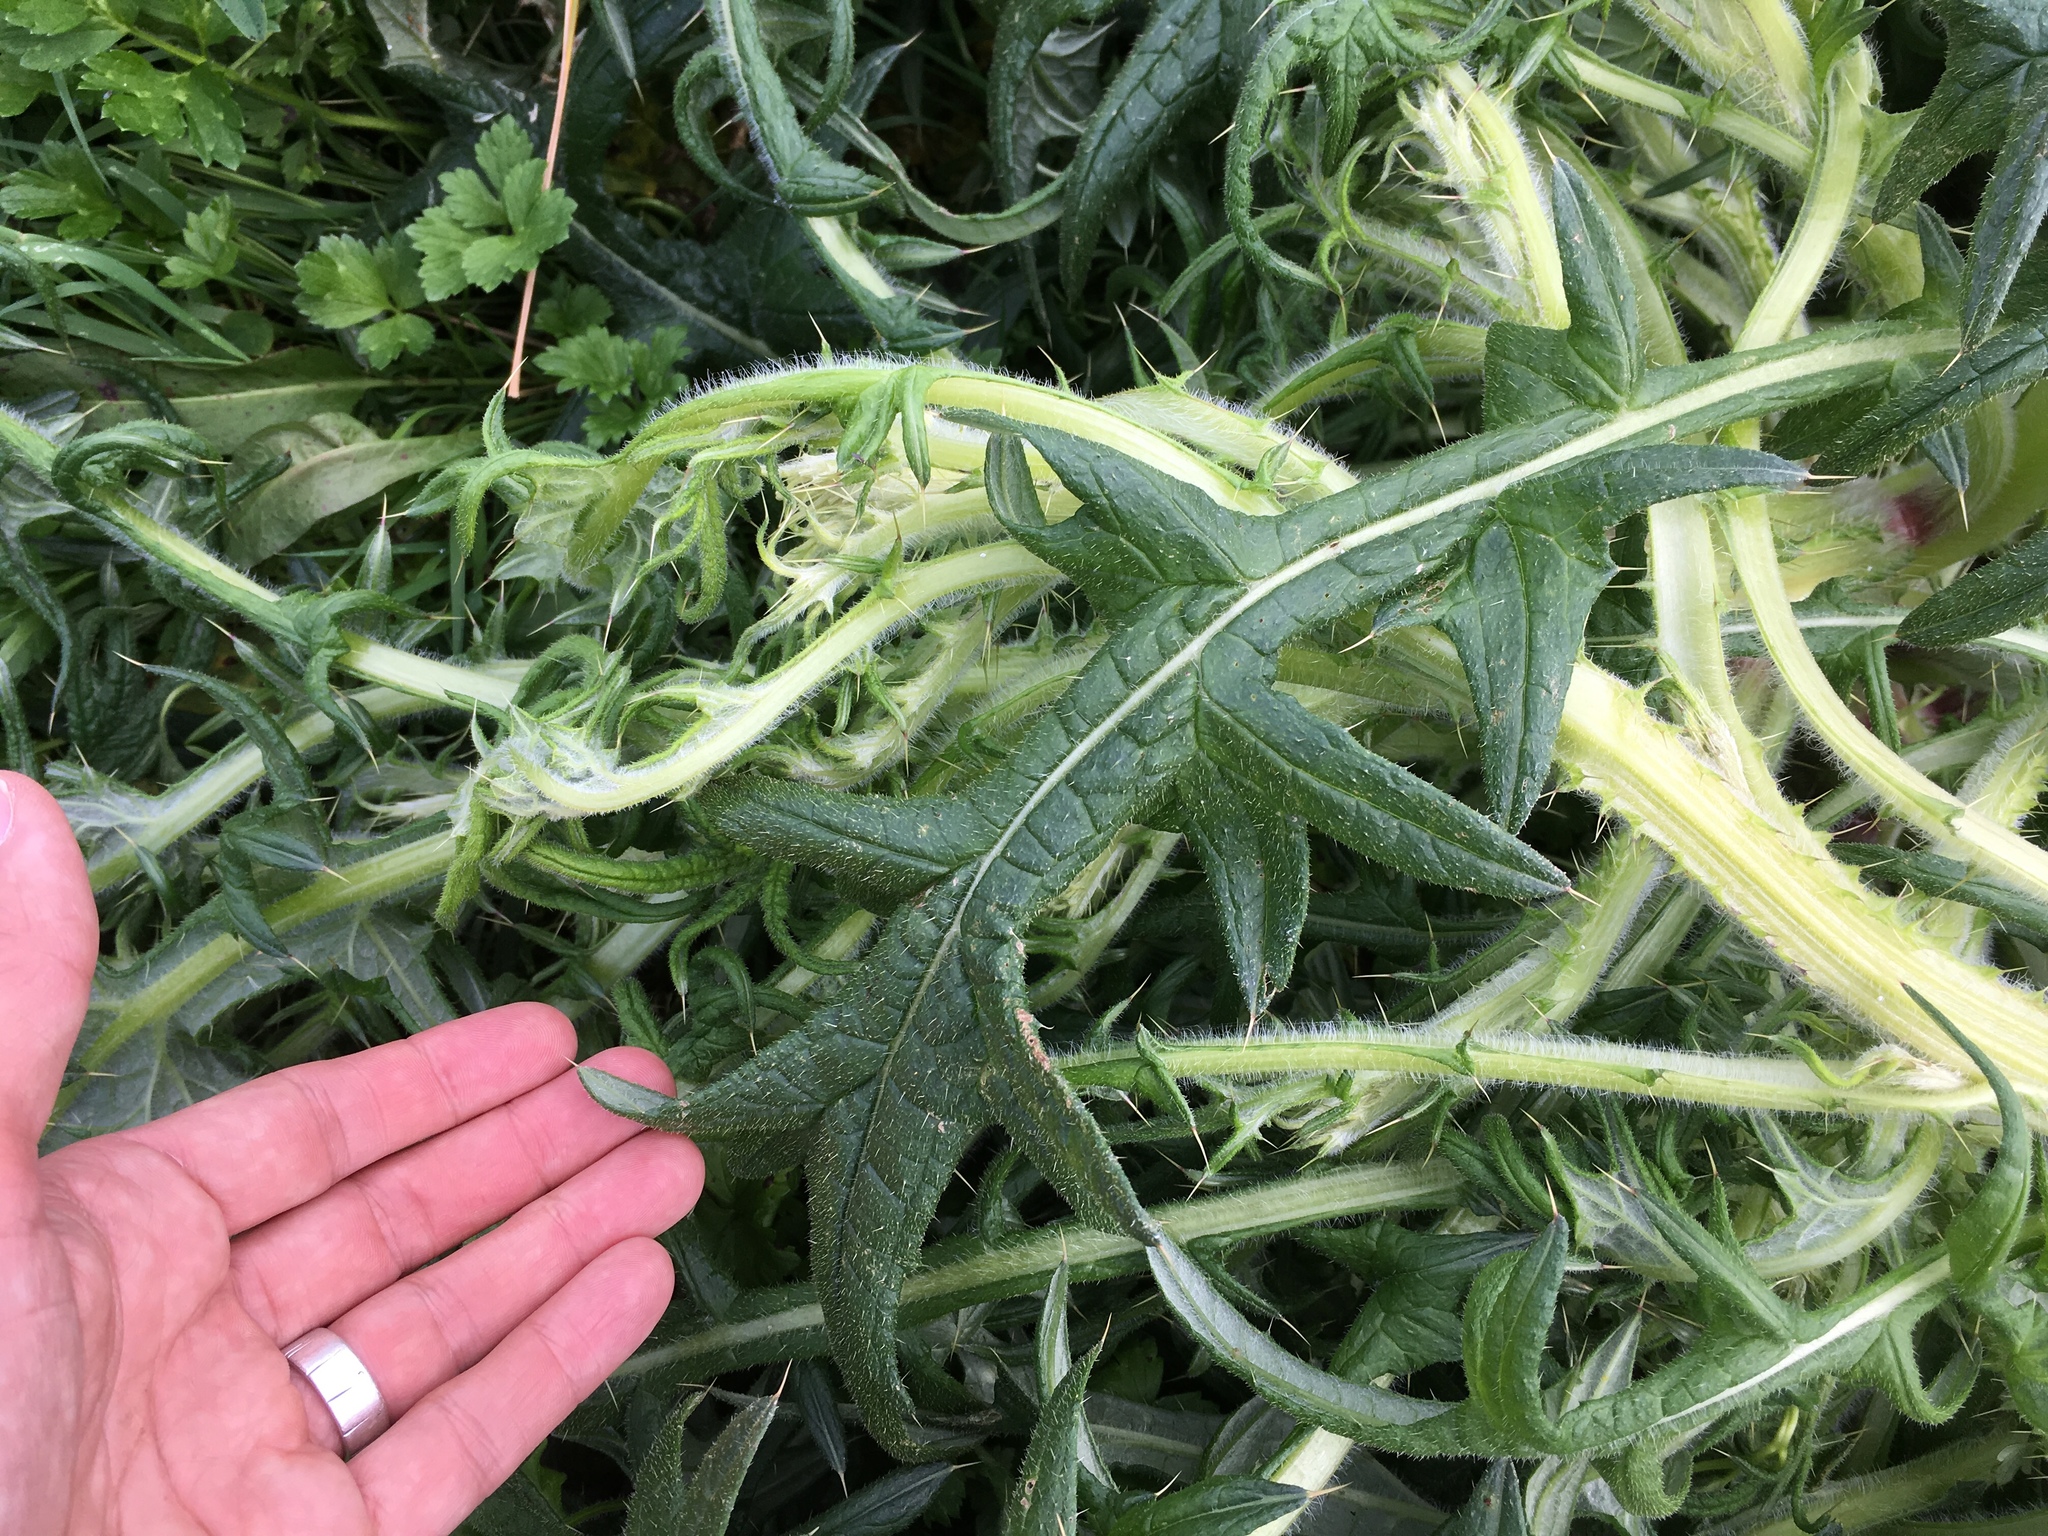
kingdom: Plantae
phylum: Tracheophyta
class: Magnoliopsida
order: Asterales
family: Asteraceae
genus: Cirsium
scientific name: Cirsium vulgare
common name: Bull thistle
